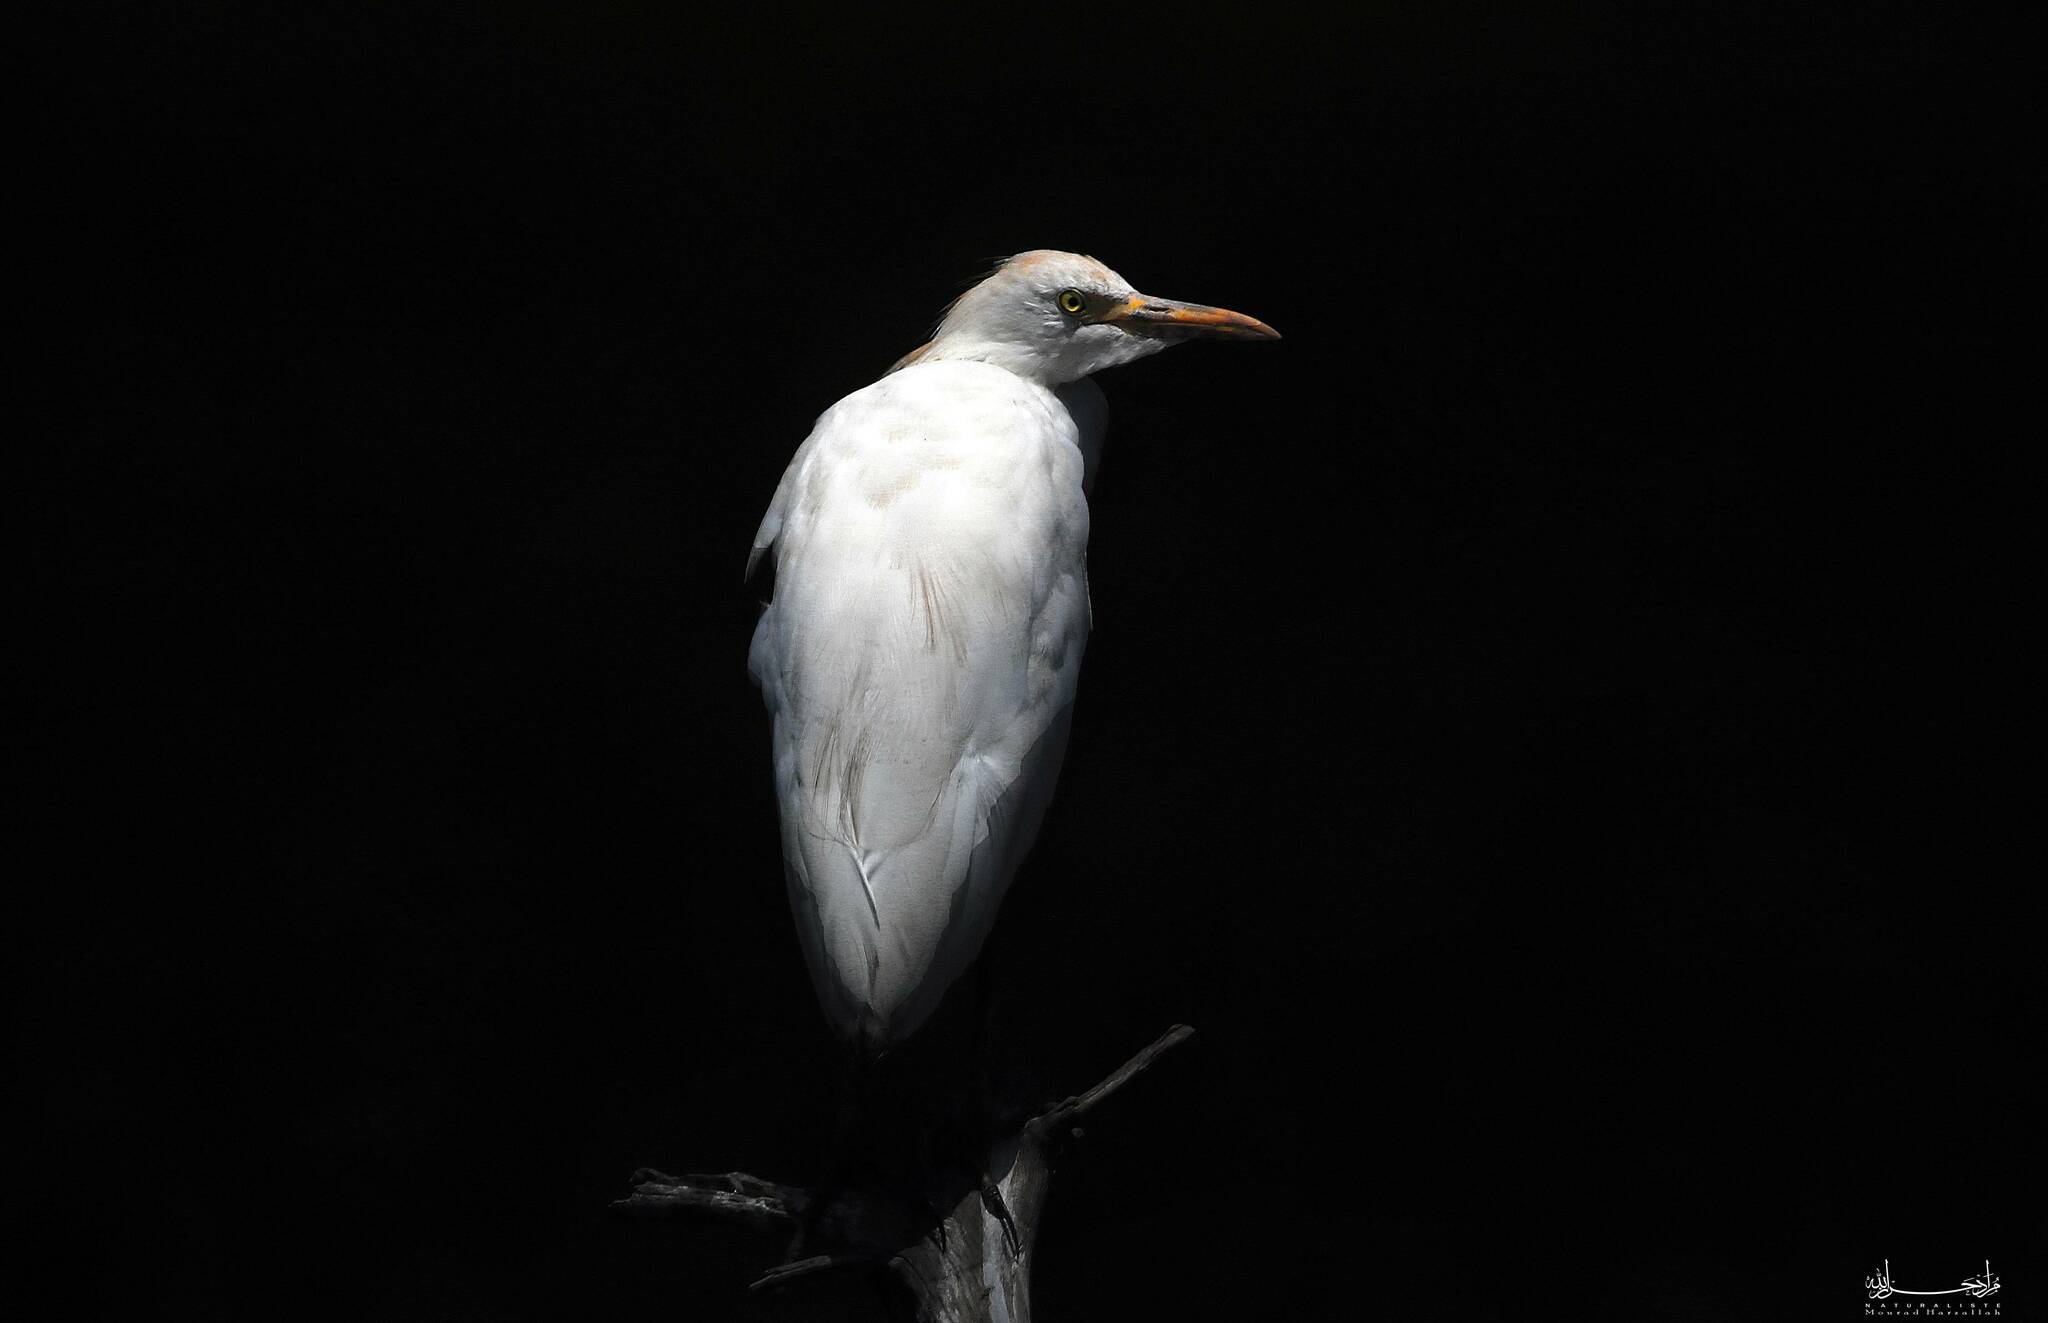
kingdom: Animalia
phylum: Chordata
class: Aves
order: Pelecaniformes
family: Ardeidae
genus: Bubulcus
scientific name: Bubulcus ibis
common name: Cattle egret
